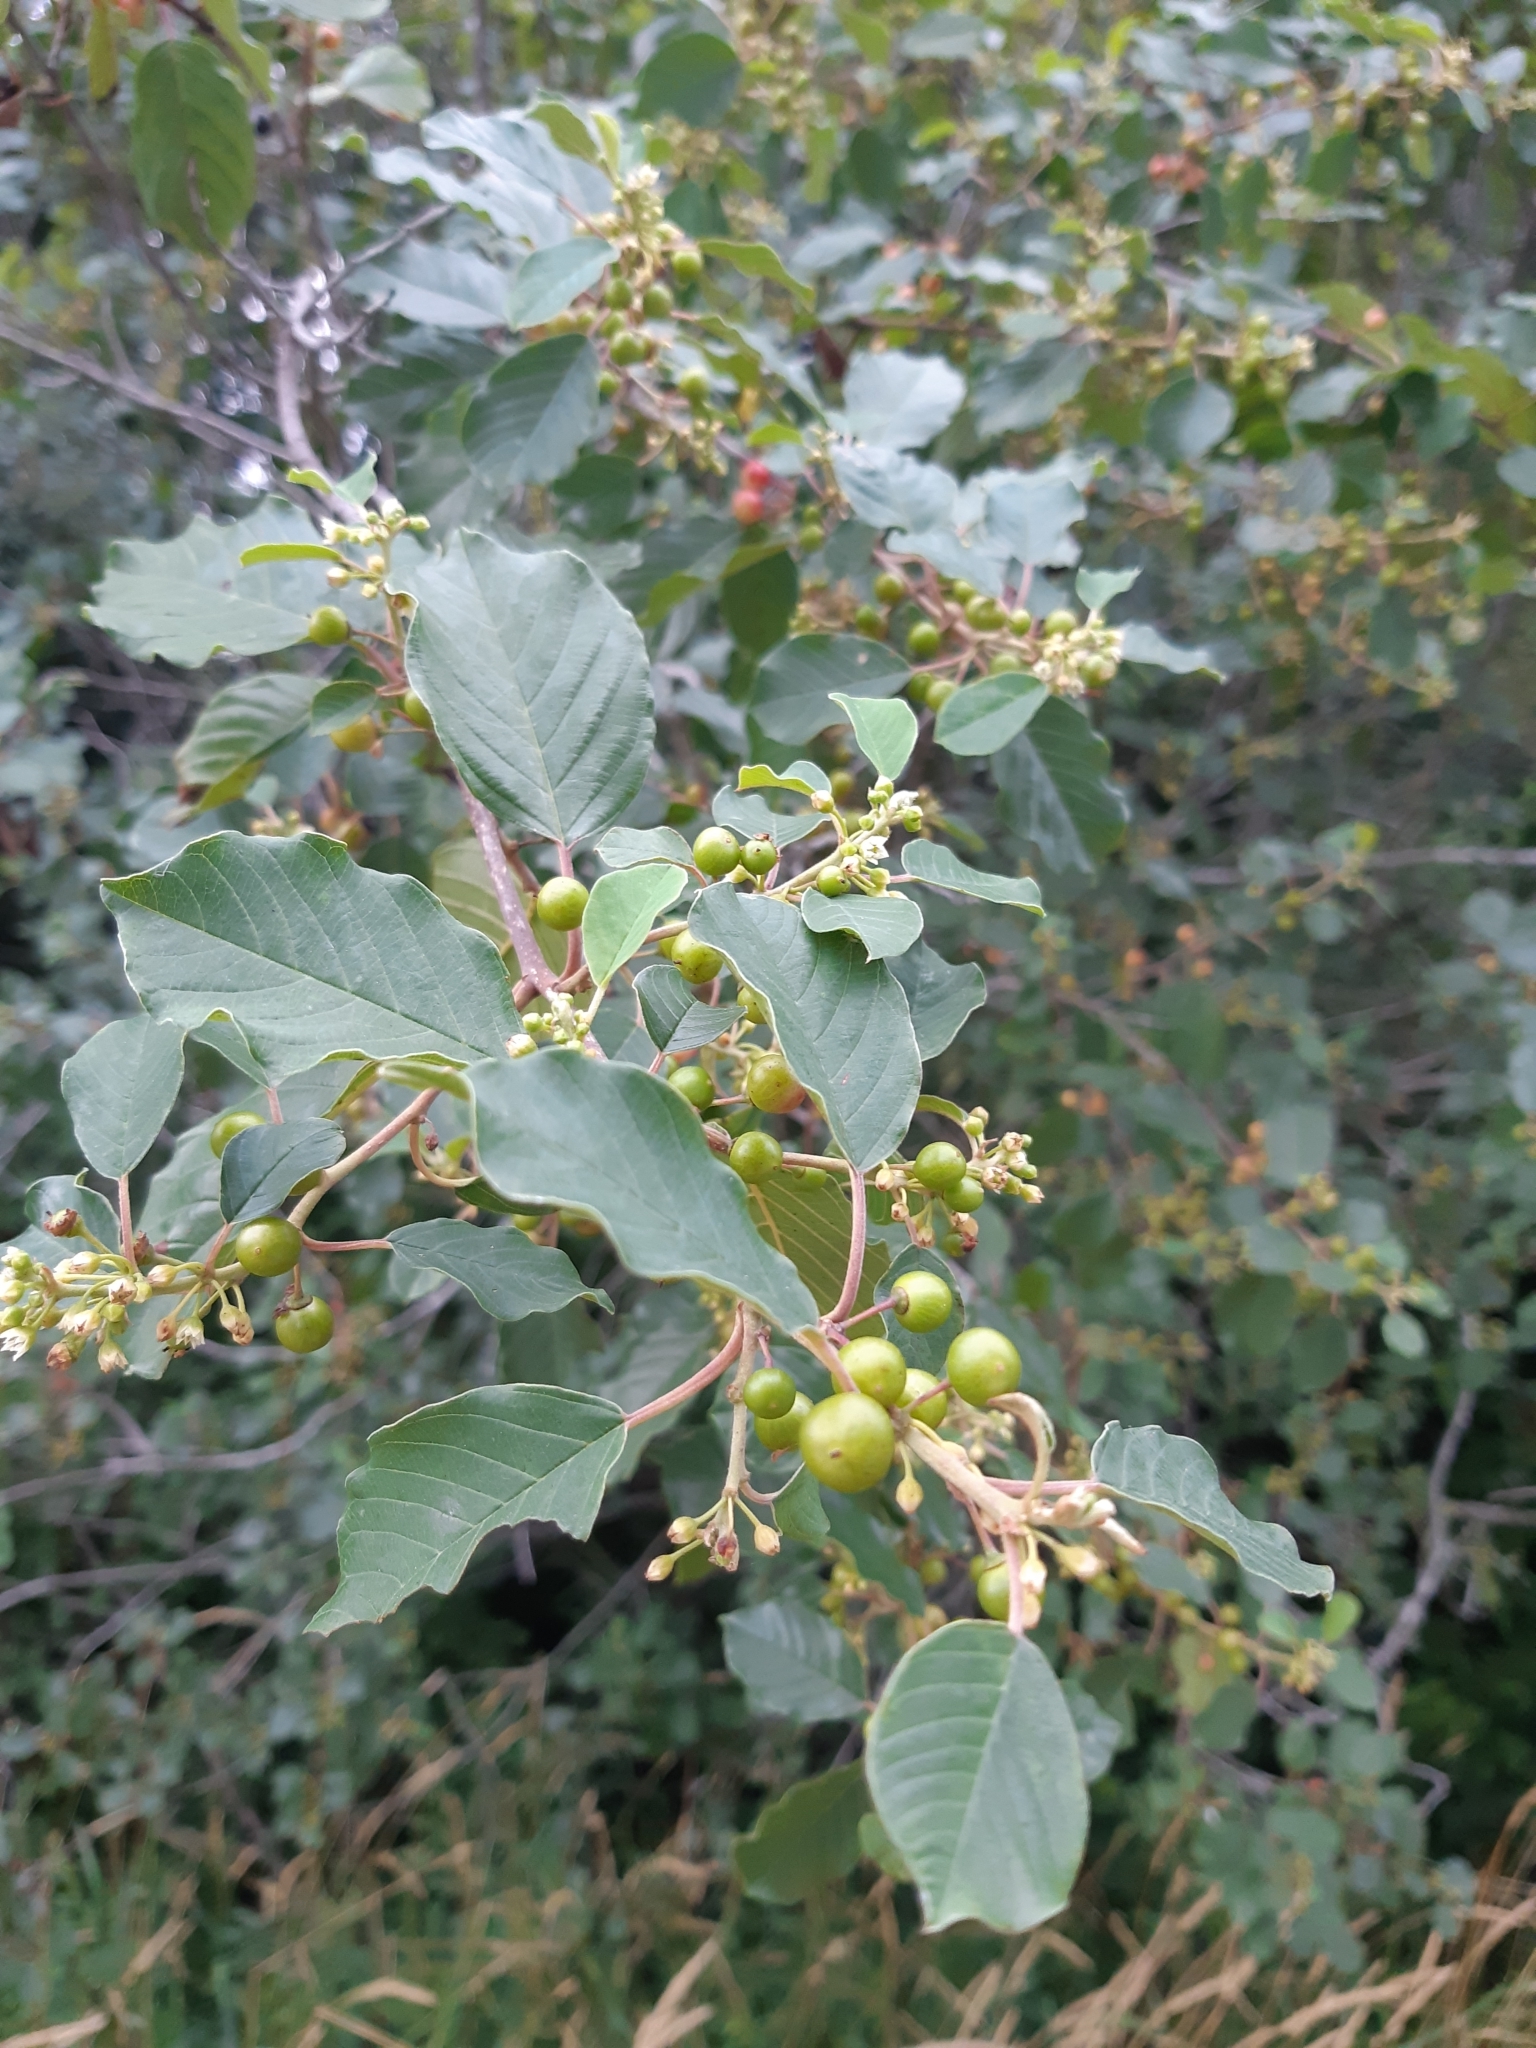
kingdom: Plantae
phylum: Tracheophyta
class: Magnoliopsida
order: Rosales
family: Rhamnaceae
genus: Frangula
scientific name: Frangula alnus
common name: Alder buckthorn
